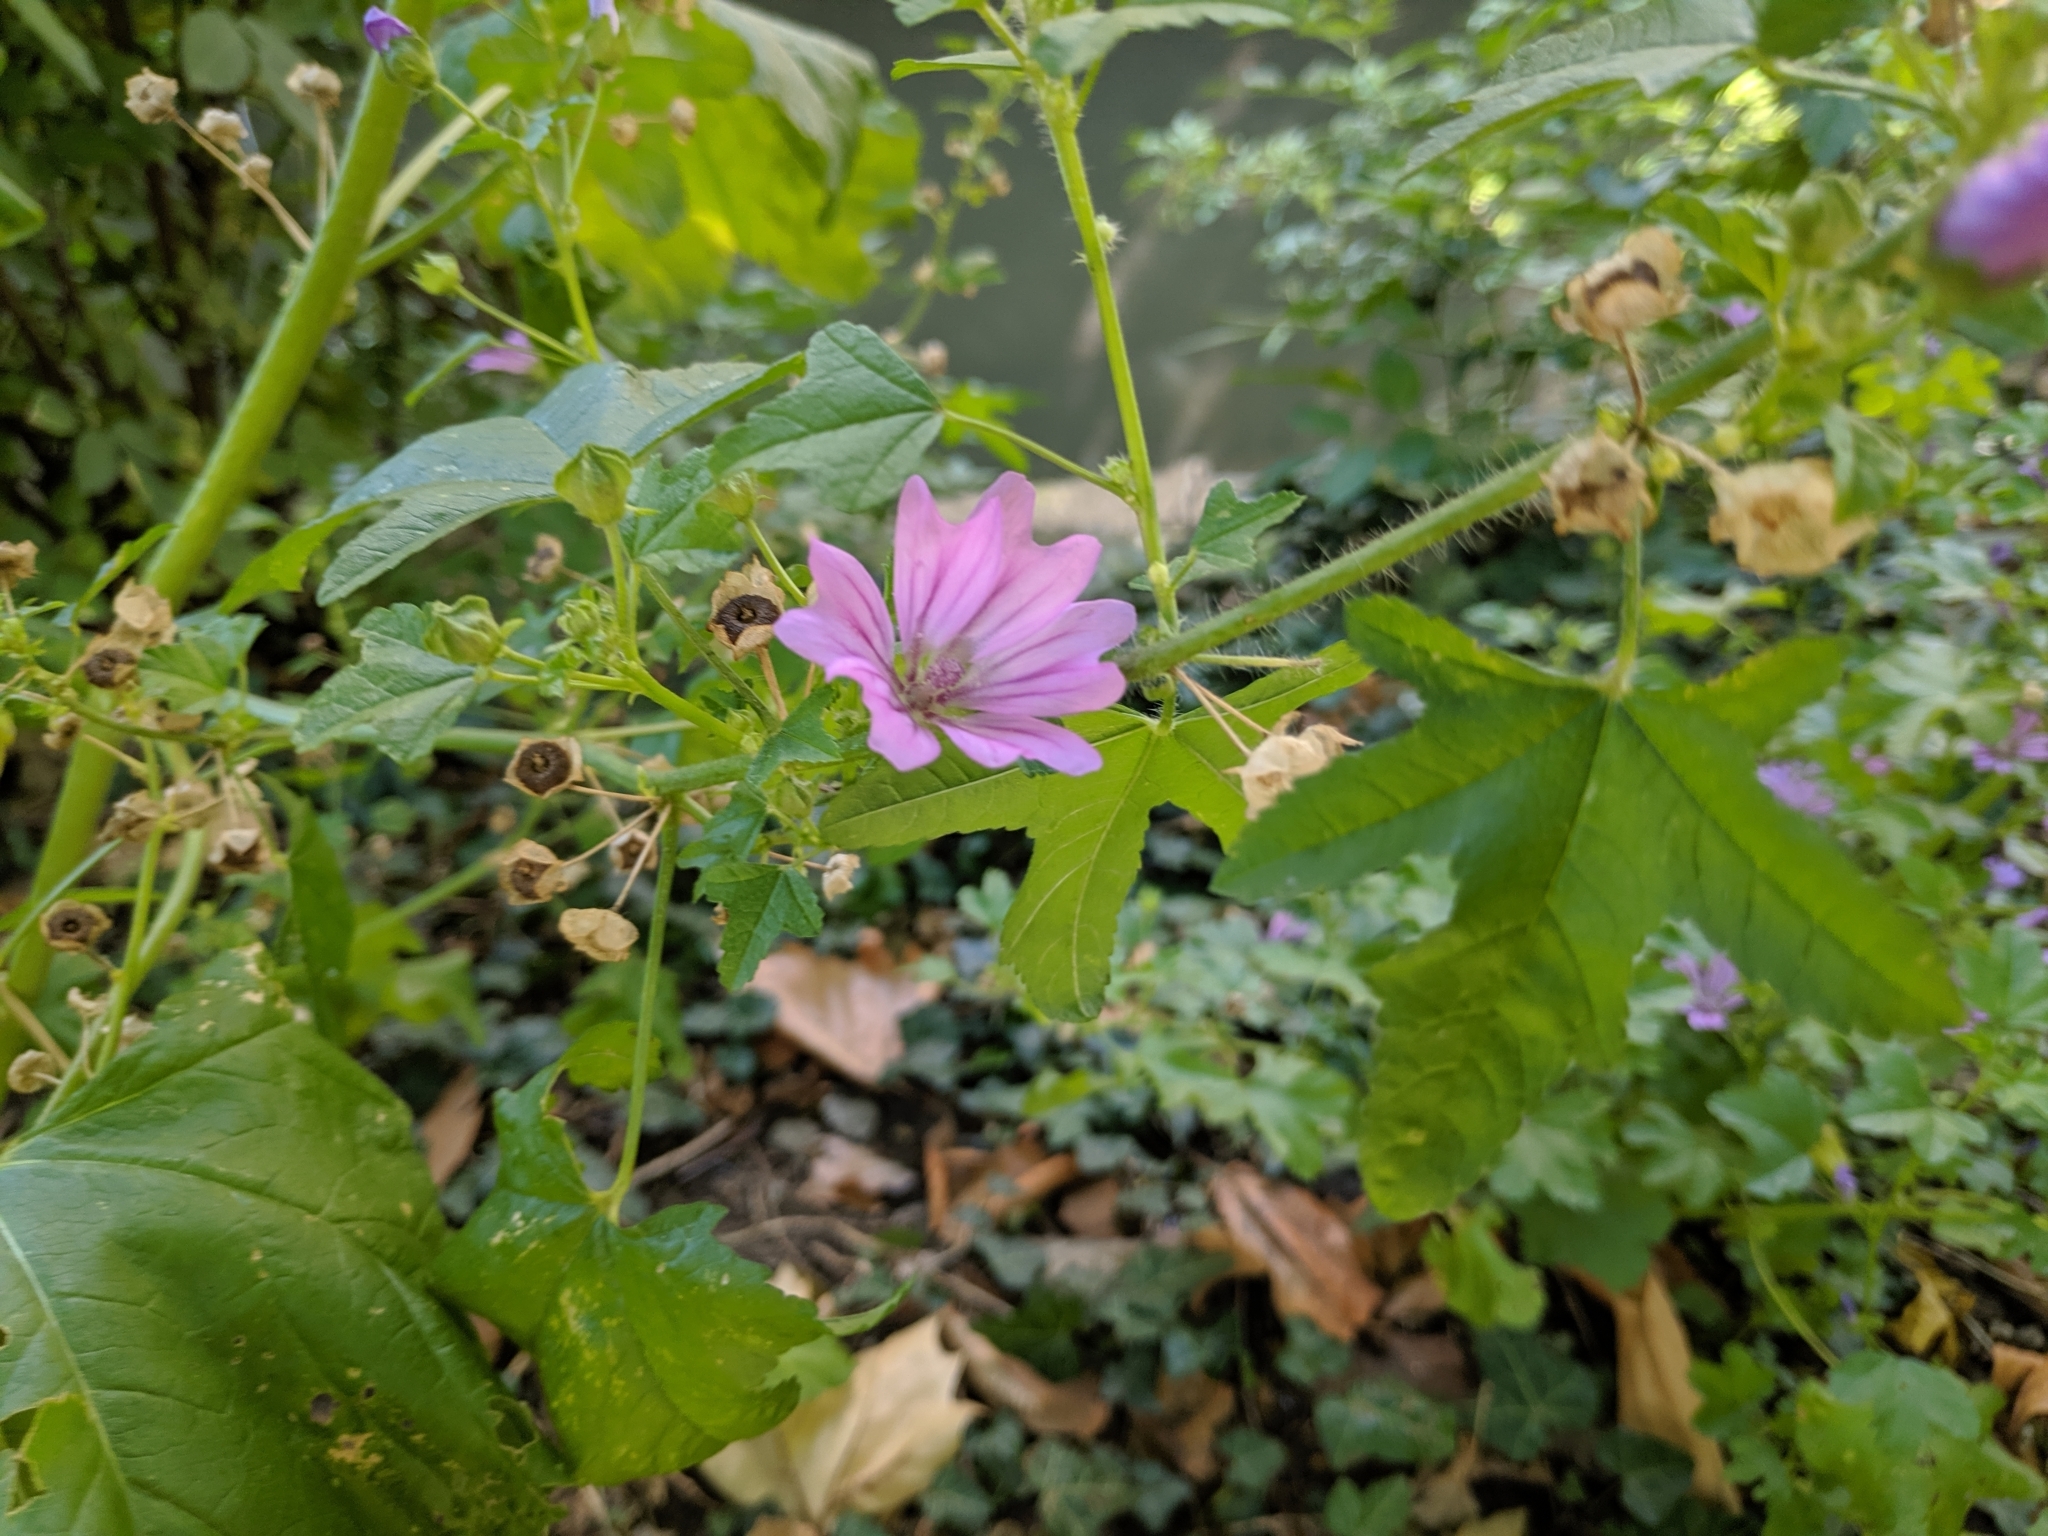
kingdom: Plantae
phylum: Tracheophyta
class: Magnoliopsida
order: Malvales
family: Malvaceae
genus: Malva
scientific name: Malva sylvestris
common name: Common mallow
